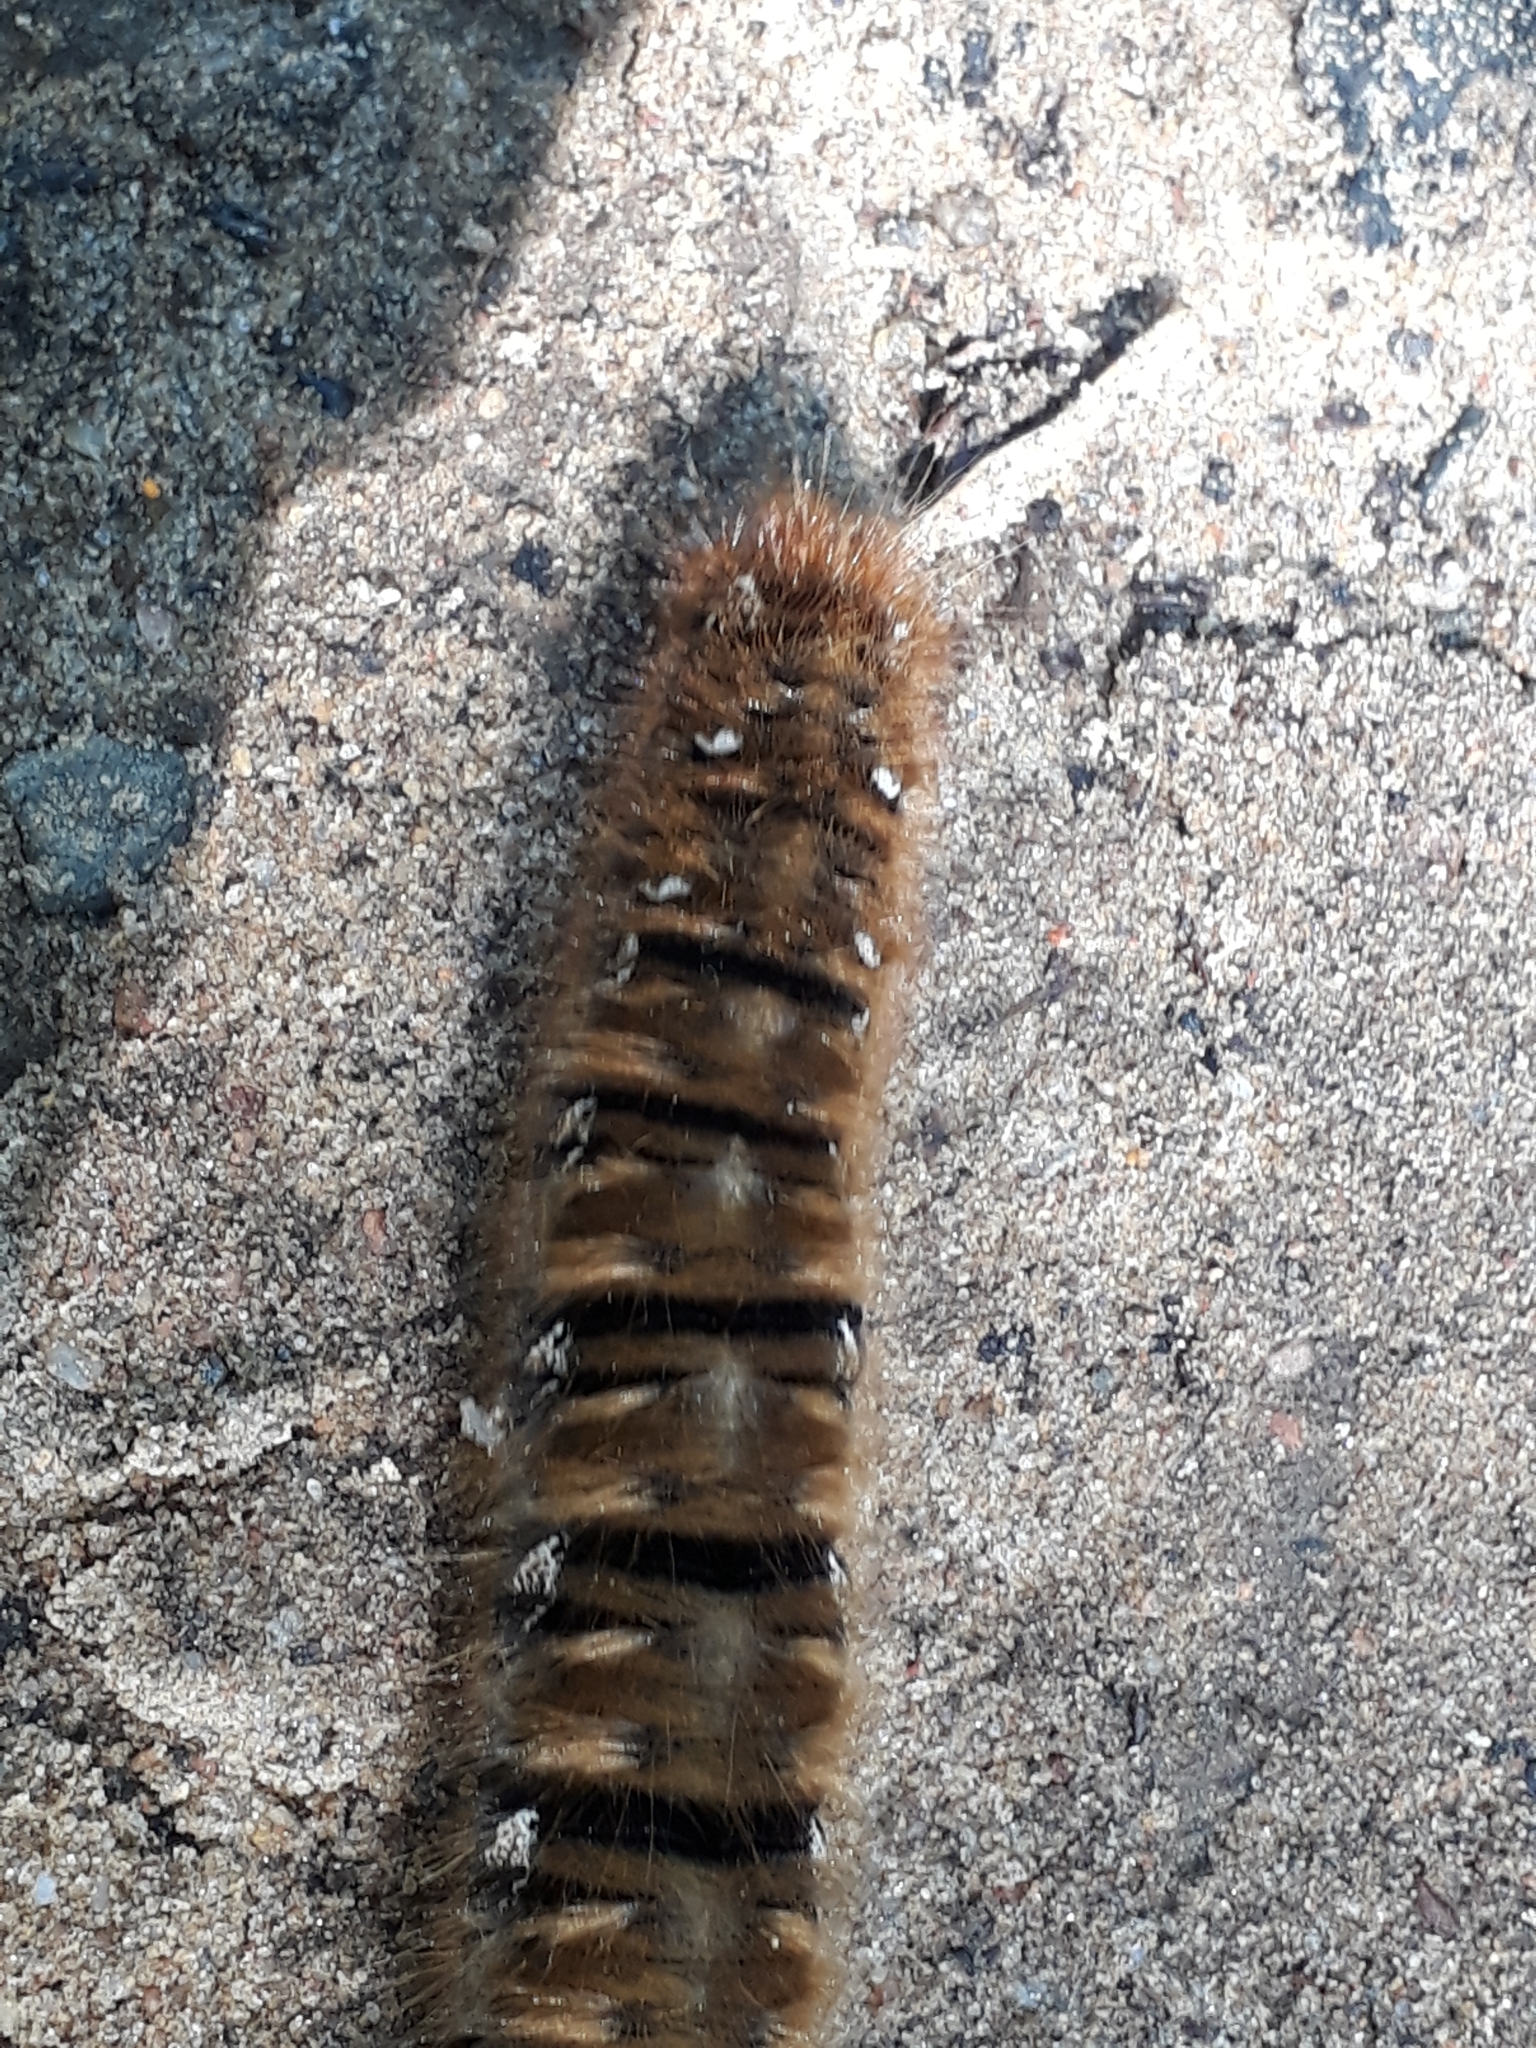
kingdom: Animalia
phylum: Arthropoda
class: Insecta
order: Lepidoptera
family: Lasiocampidae
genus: Lasiocampa
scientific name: Lasiocampa quercus
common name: Oak eggar
